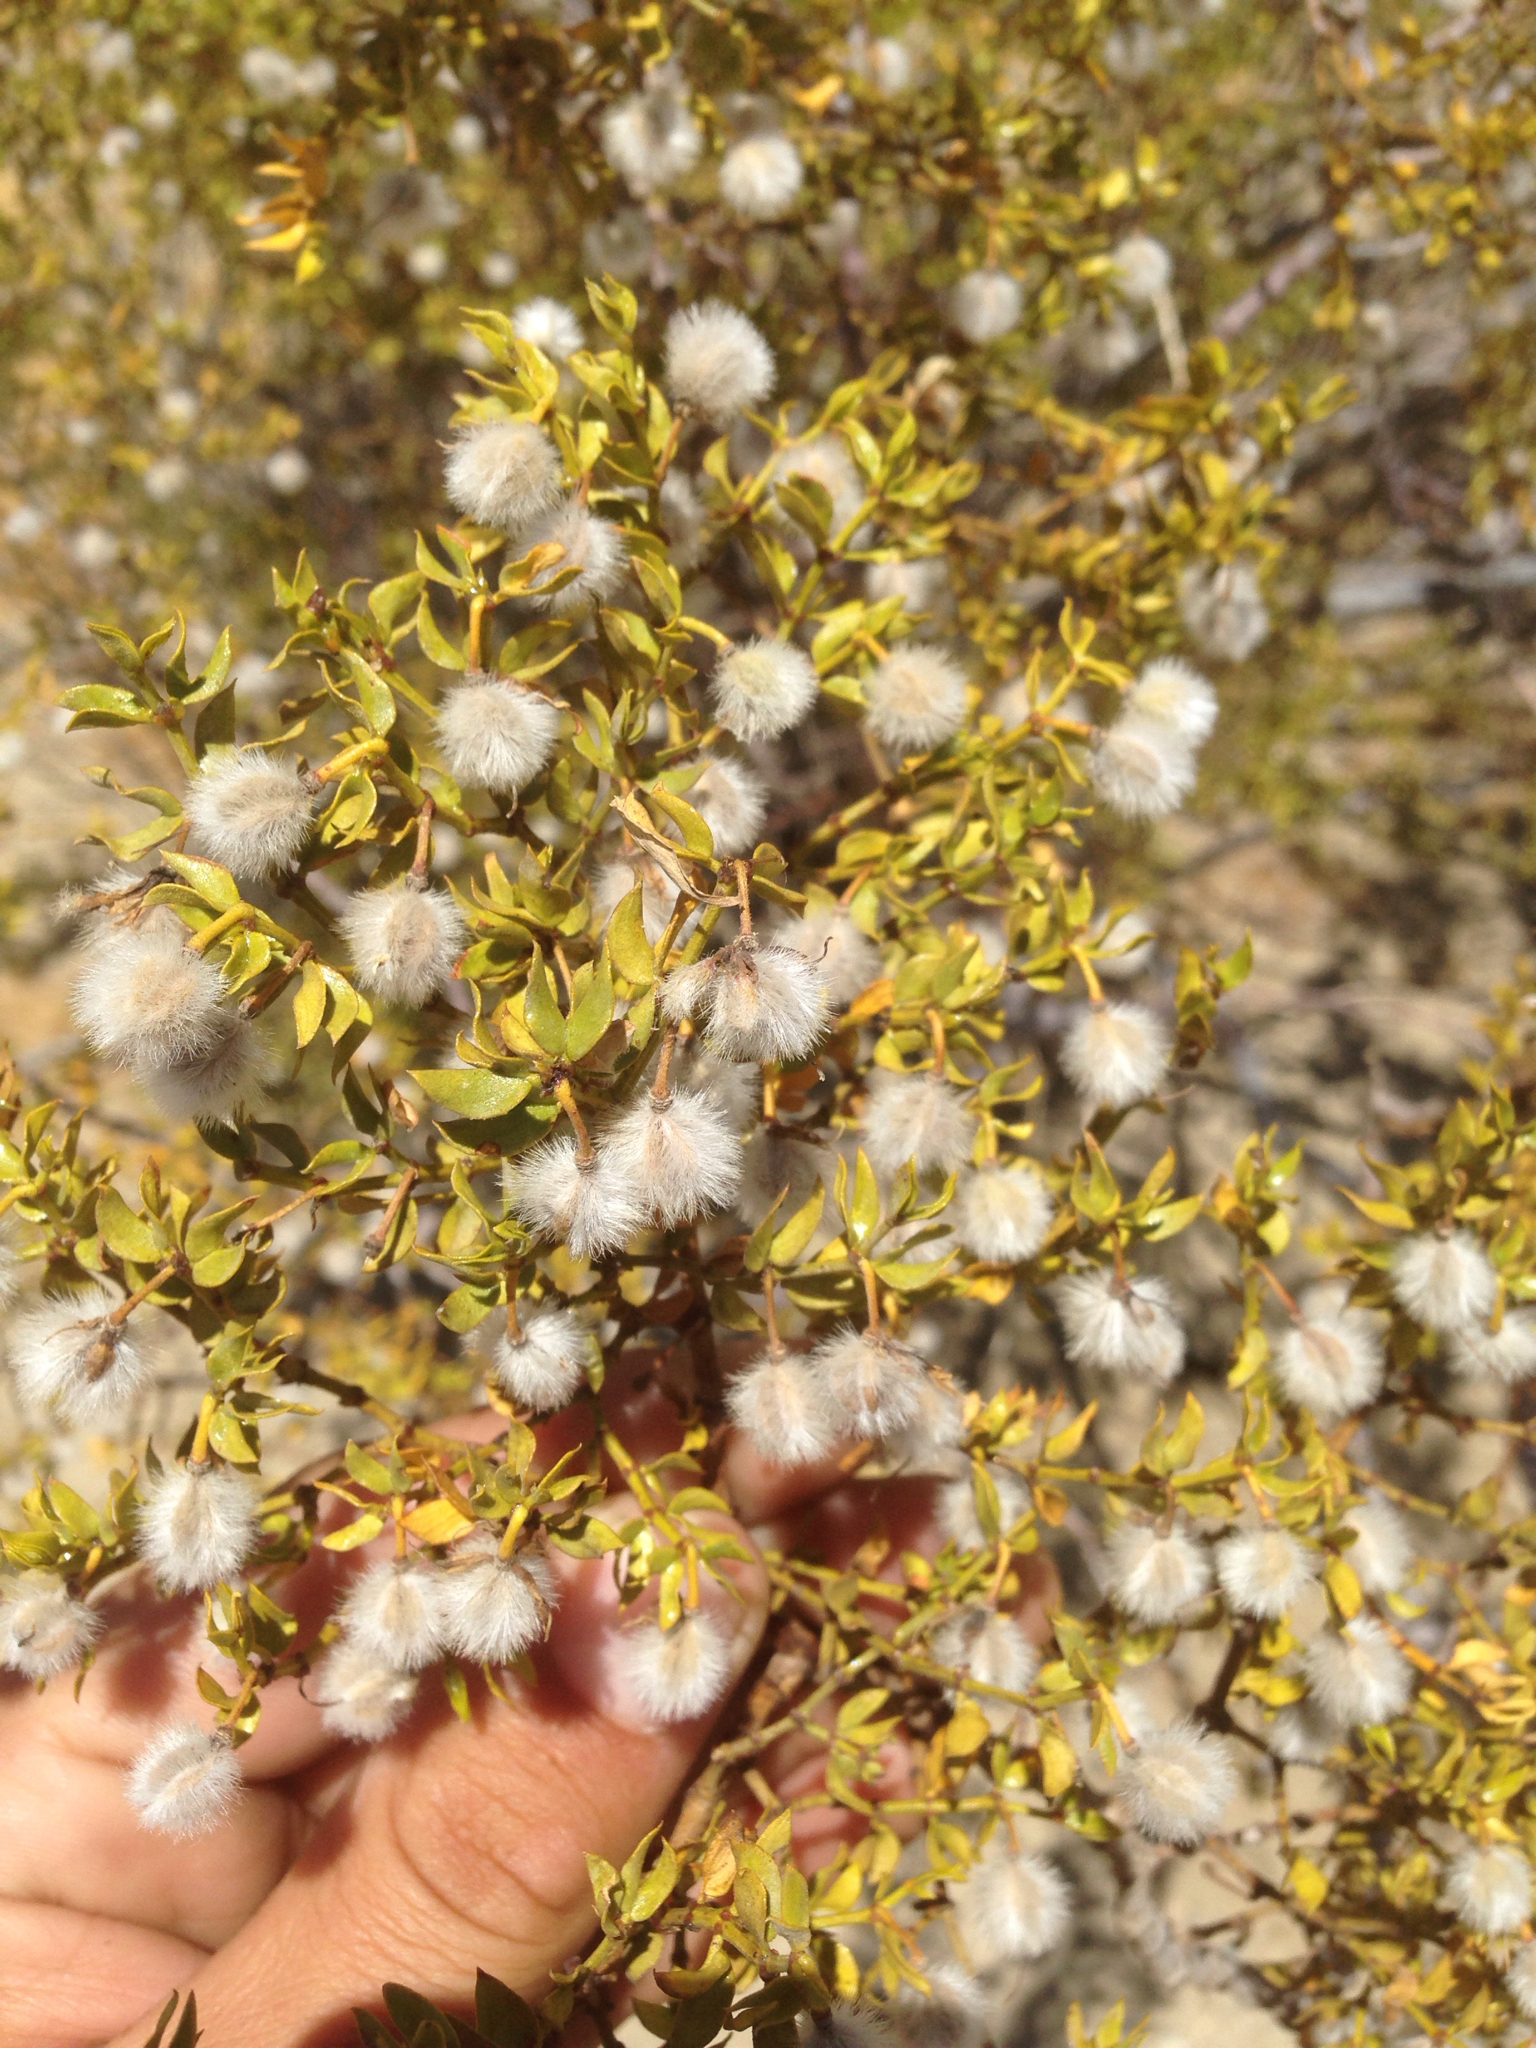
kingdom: Plantae
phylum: Tracheophyta
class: Magnoliopsida
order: Zygophyllales
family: Zygophyllaceae
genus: Larrea
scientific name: Larrea tridentata
